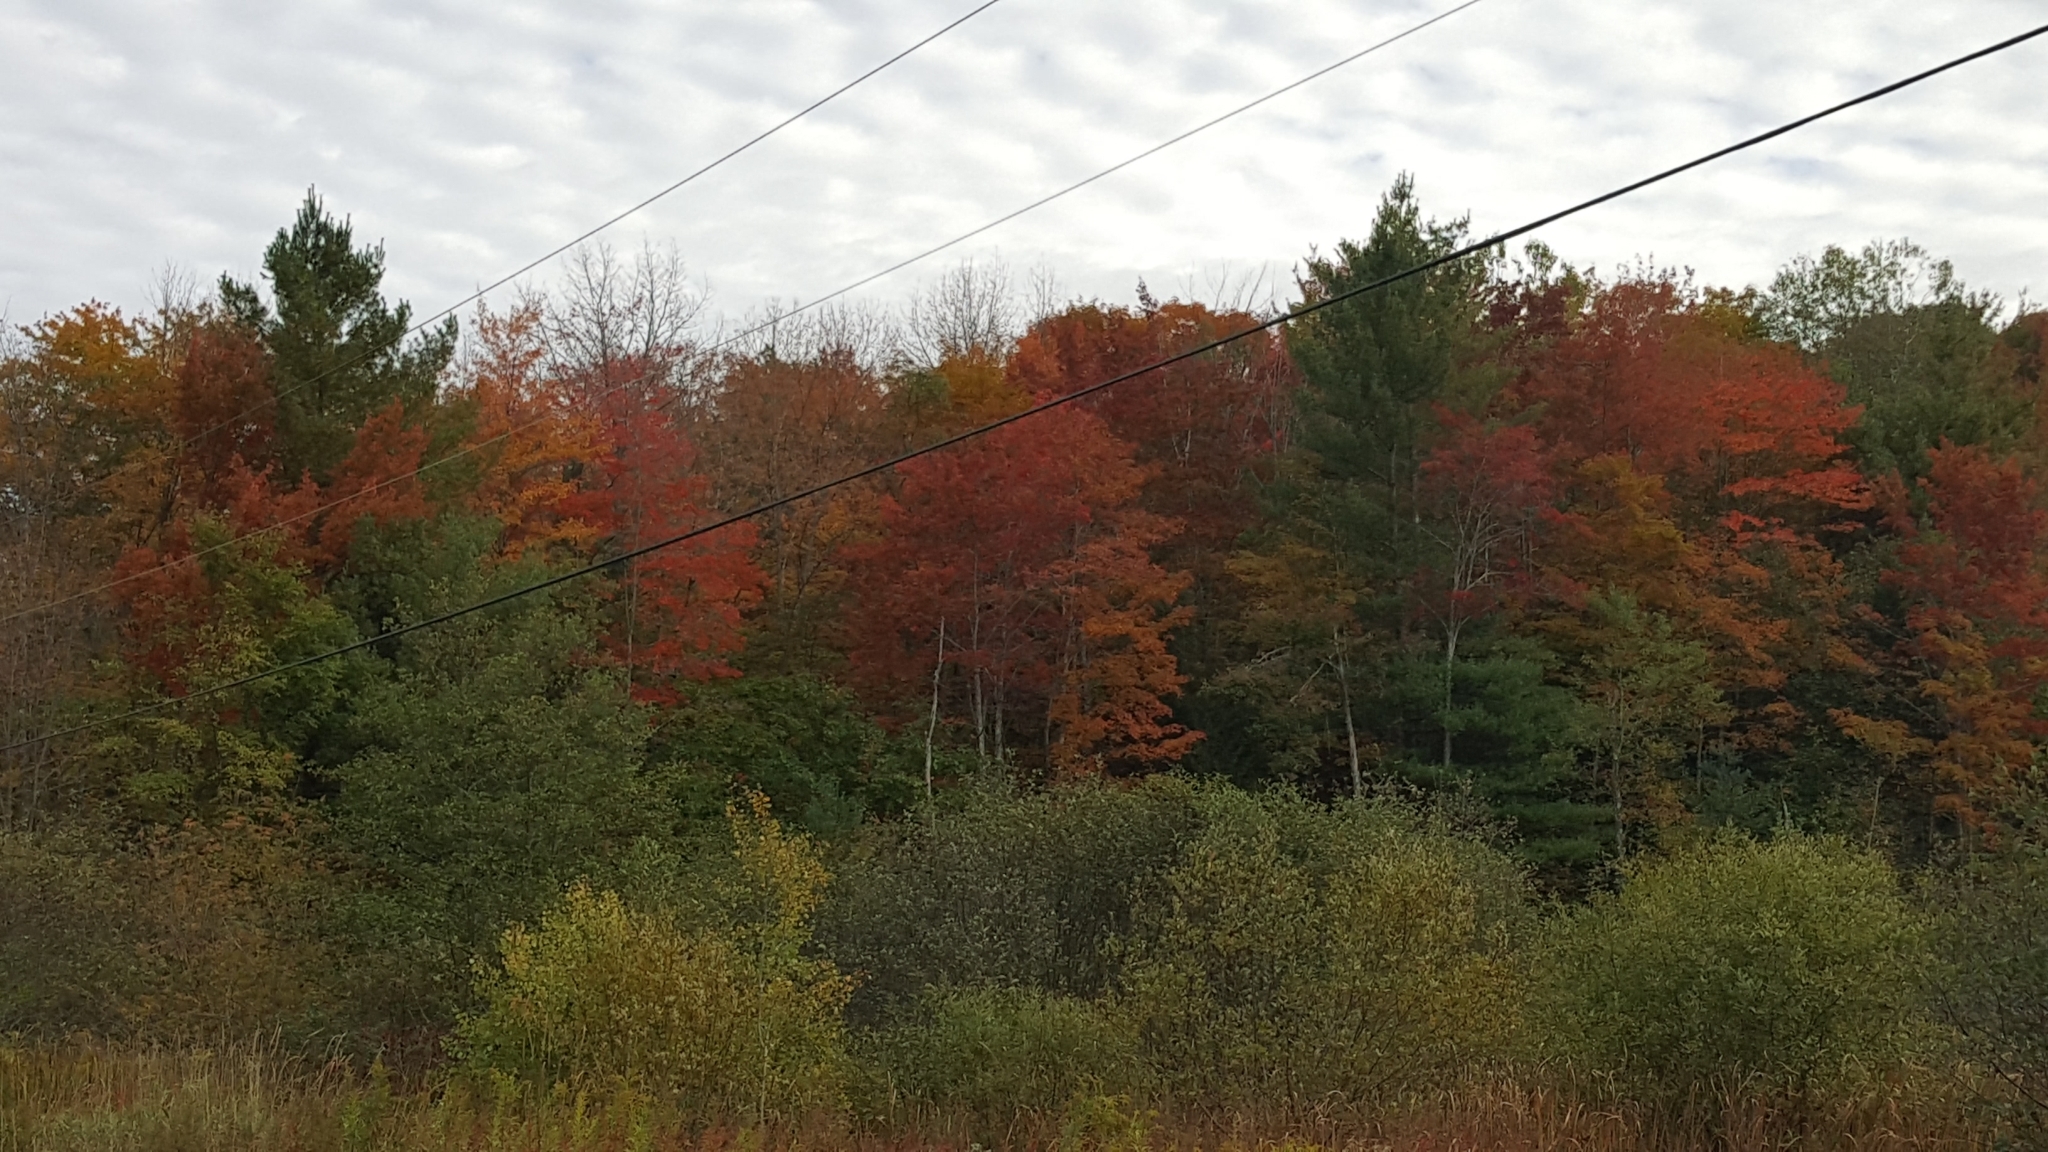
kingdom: Plantae
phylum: Tracheophyta
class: Magnoliopsida
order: Sapindales
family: Sapindaceae
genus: Acer
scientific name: Acer rubrum
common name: Red maple
